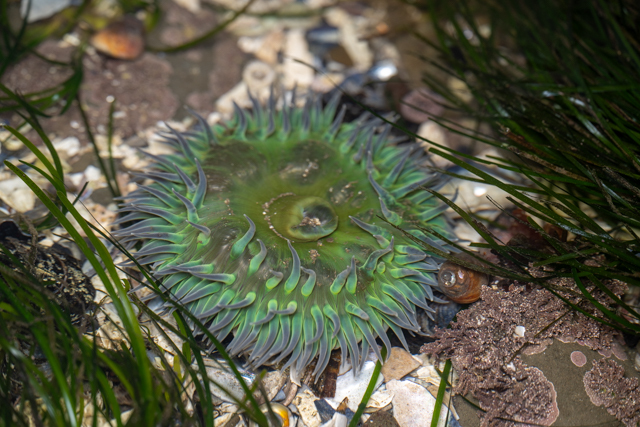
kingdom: Animalia
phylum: Cnidaria
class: Anthozoa
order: Actiniaria
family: Actiniidae
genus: Anthopleura
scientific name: Anthopleura xanthogrammica
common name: Giant green anemone
